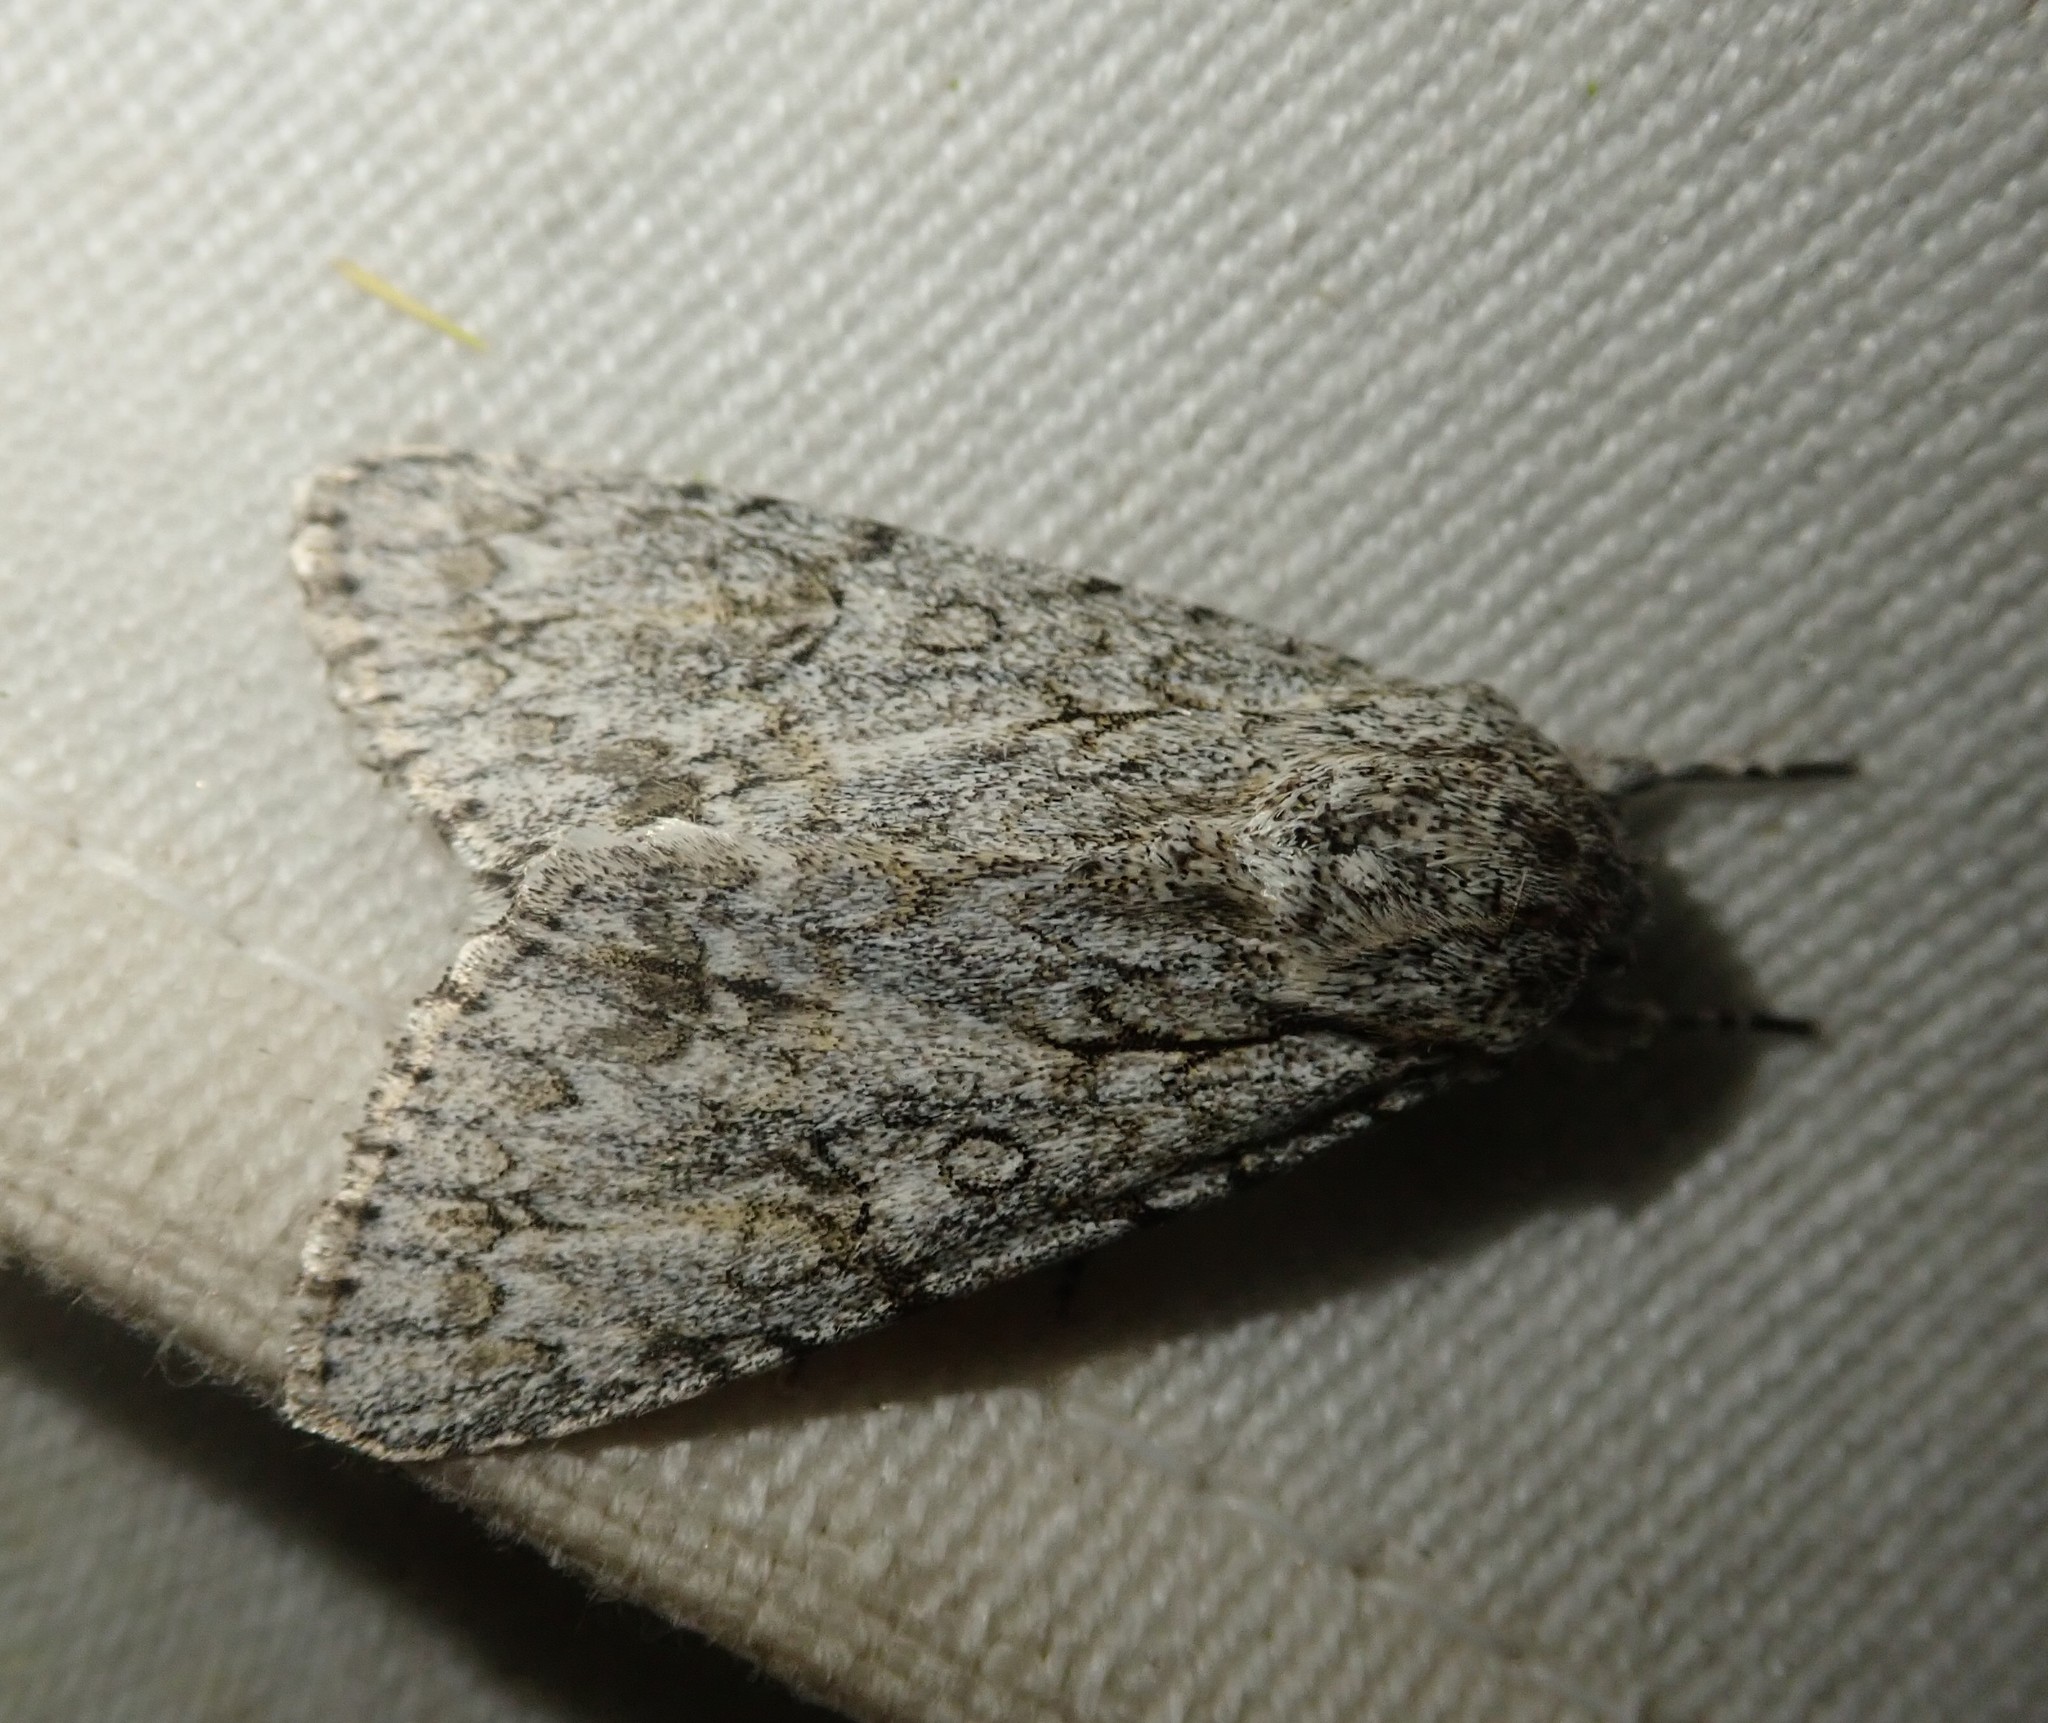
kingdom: Animalia
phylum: Arthropoda
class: Insecta
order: Lepidoptera
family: Noctuidae
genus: Acronicta
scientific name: Acronicta aceris
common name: Sycamore
